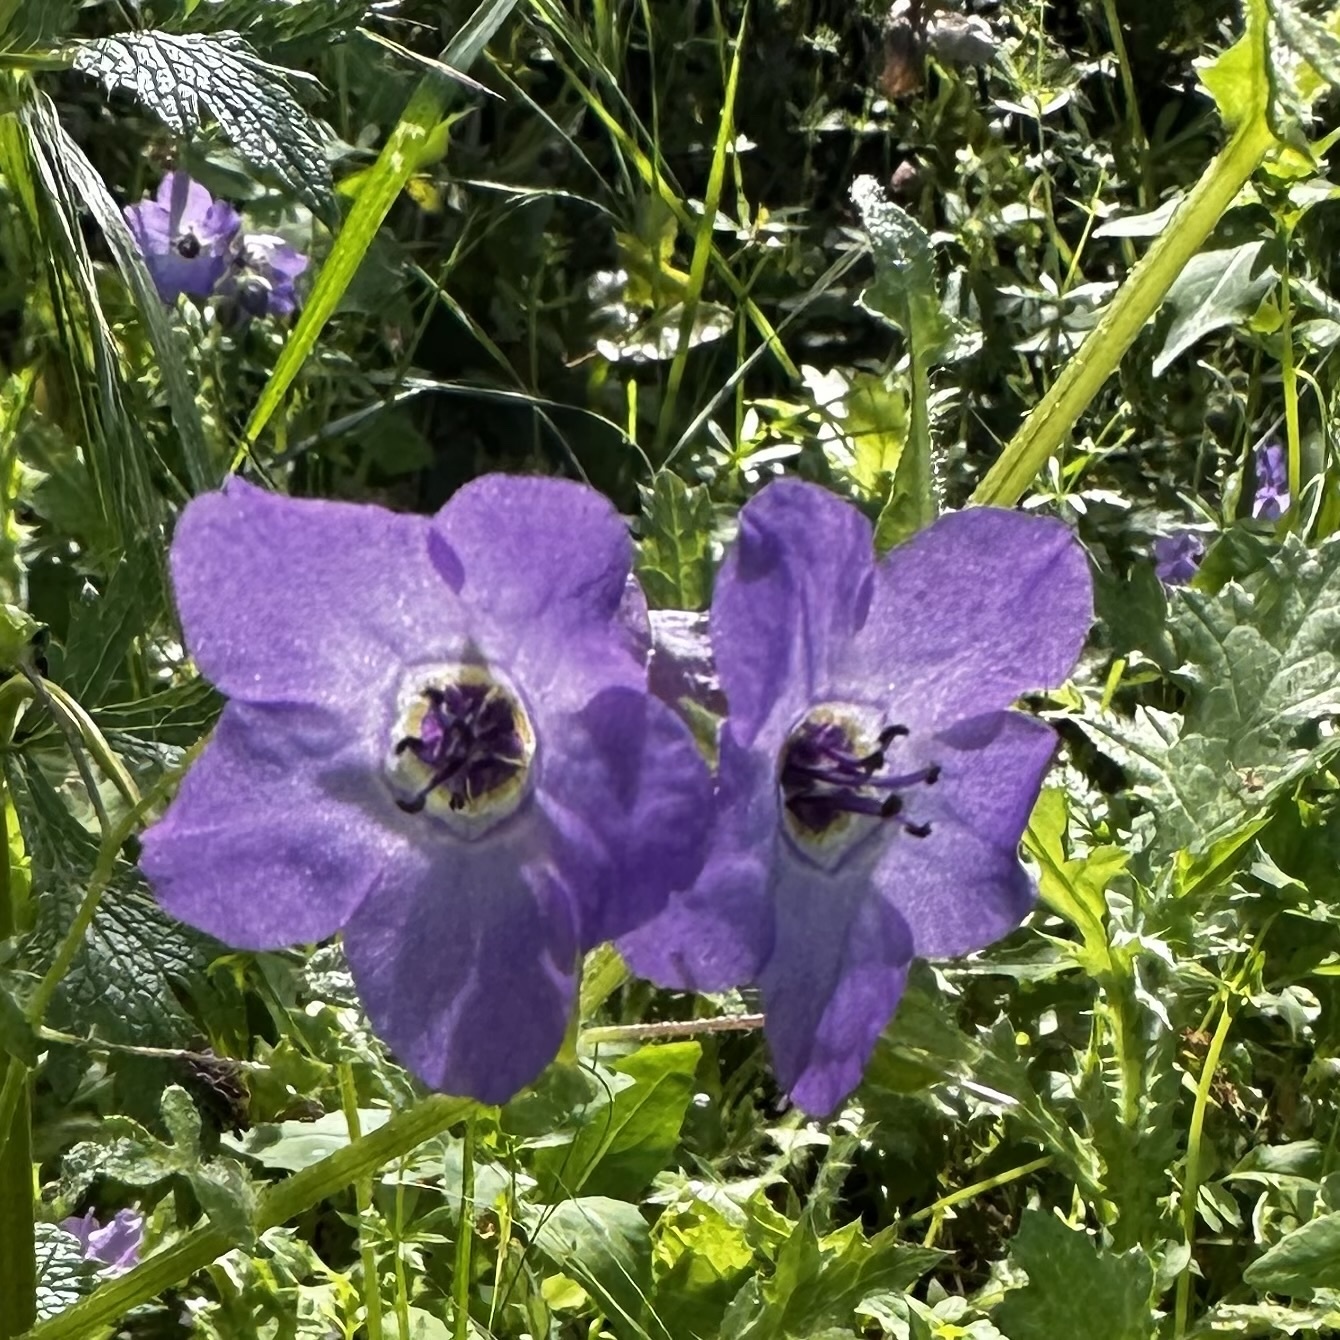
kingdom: Plantae
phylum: Tracheophyta
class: Magnoliopsida
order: Boraginales
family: Hydrophyllaceae
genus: Pholistoma
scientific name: Pholistoma auritum
